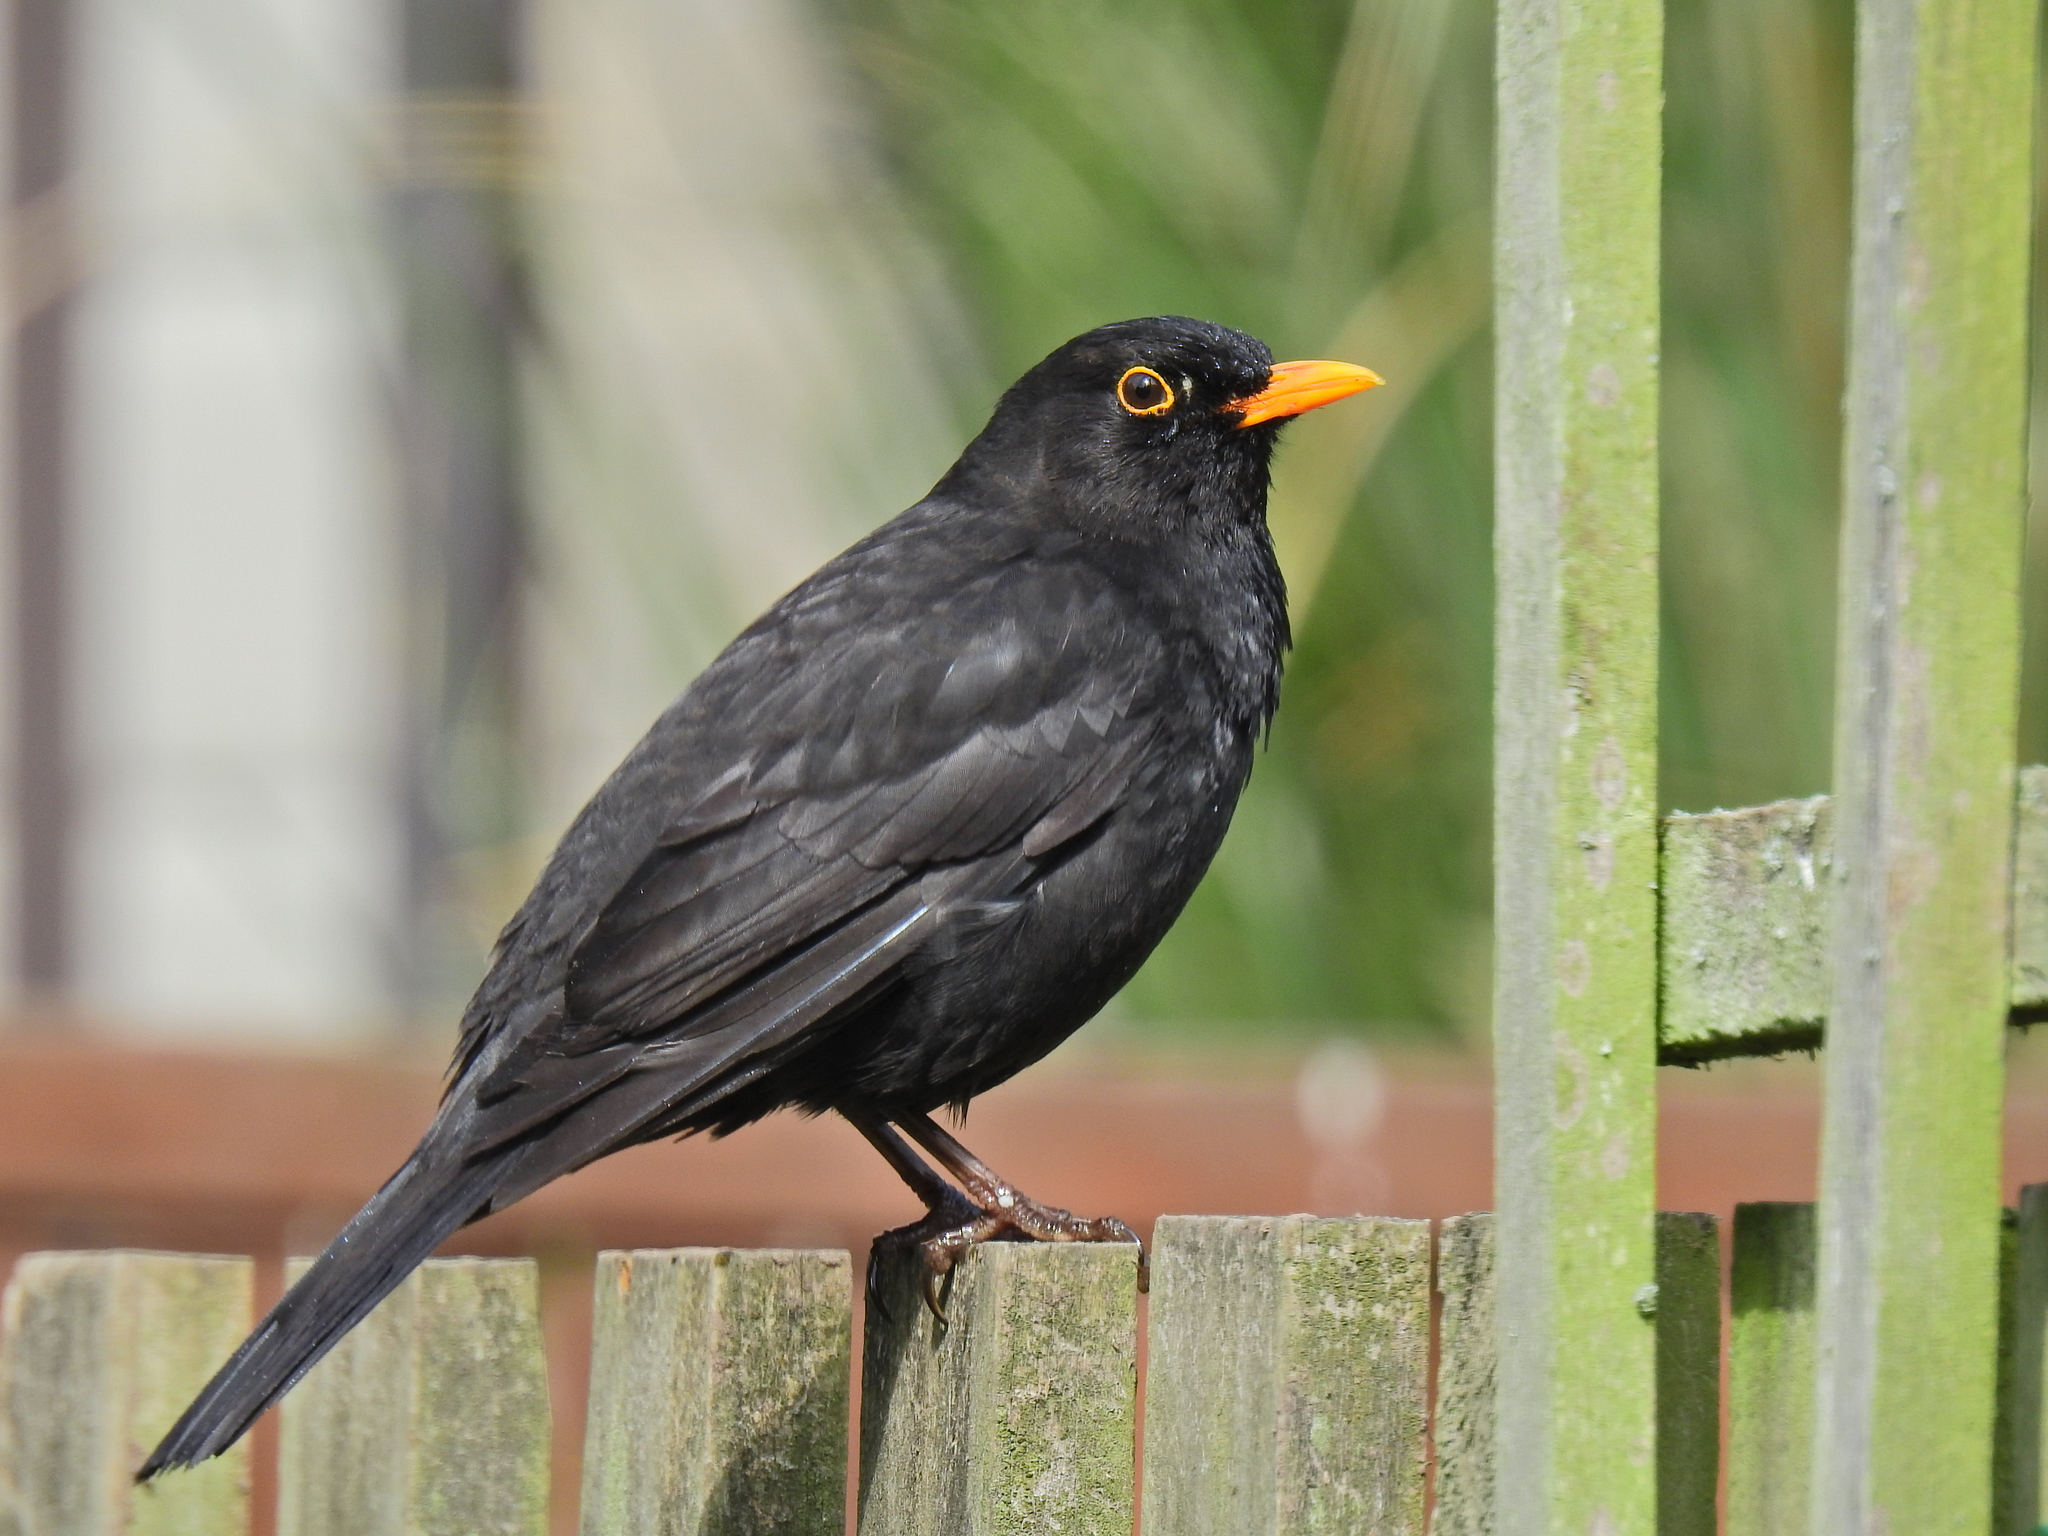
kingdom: Animalia
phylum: Chordata
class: Aves
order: Passeriformes
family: Turdidae
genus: Turdus
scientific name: Turdus merula
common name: Common blackbird
